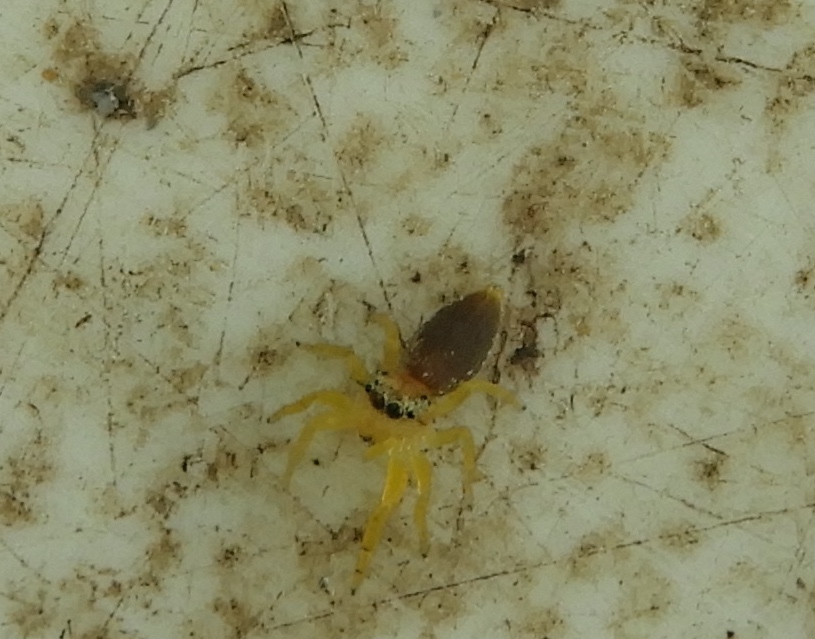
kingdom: Animalia
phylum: Arthropoda
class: Arachnida
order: Araneae
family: Salticidae
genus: Hentzia
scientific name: Hentzia
